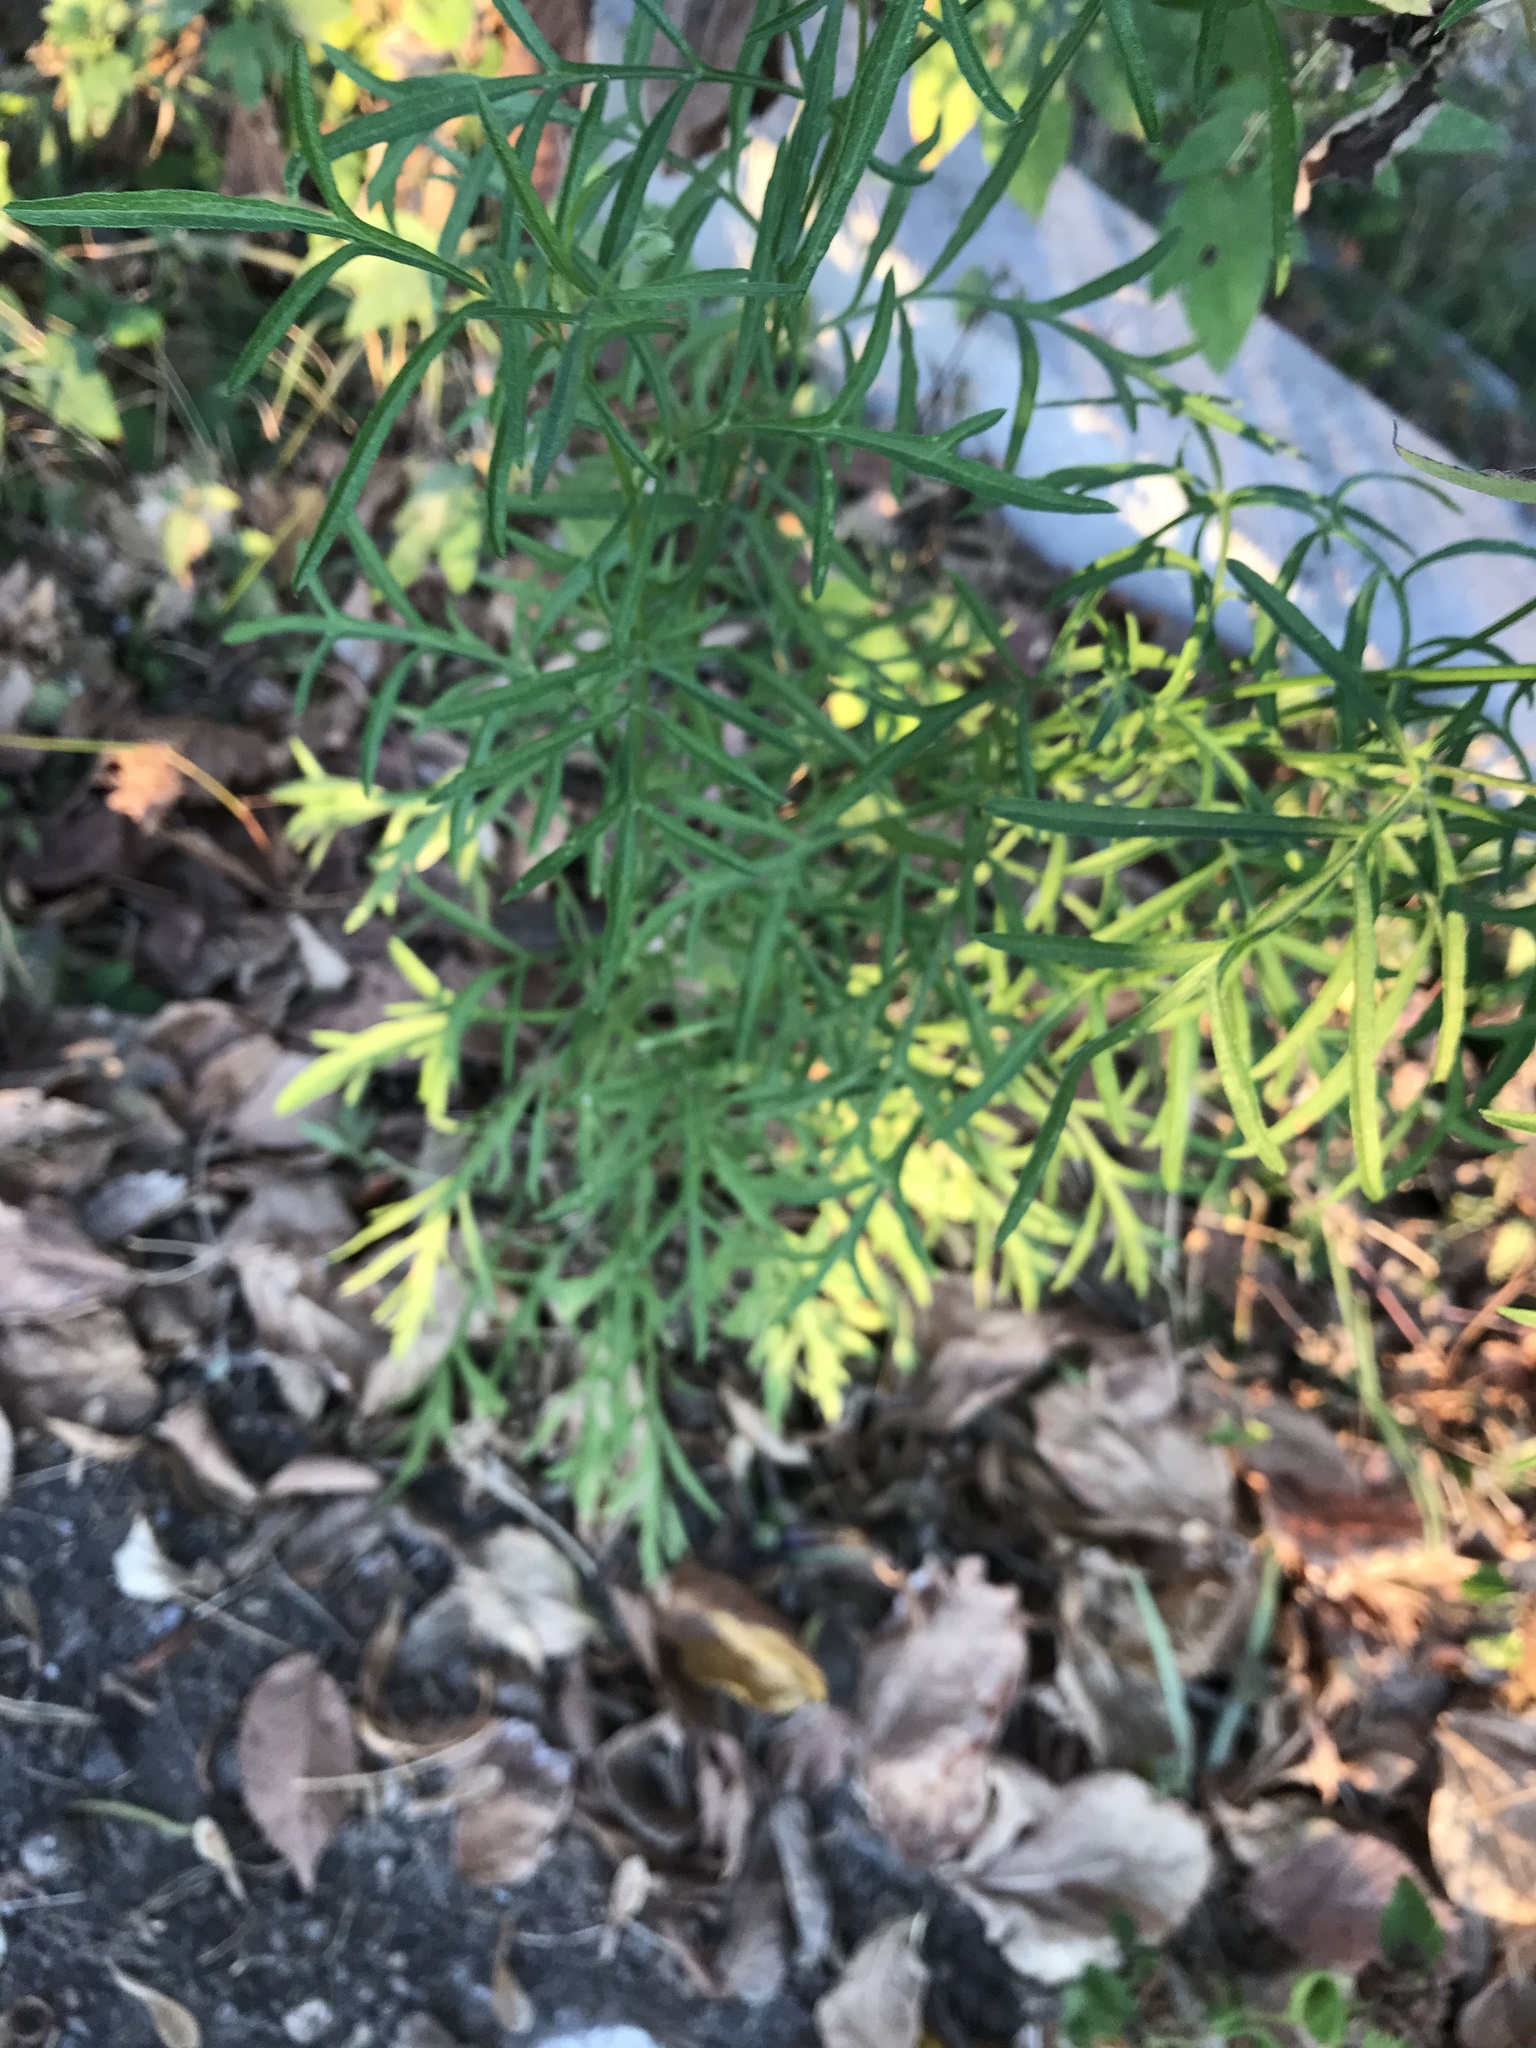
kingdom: Plantae
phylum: Tracheophyta
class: Magnoliopsida
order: Asterales
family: Asteraceae
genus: Ratibida
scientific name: Ratibida columnifera
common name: Prairie coneflower
